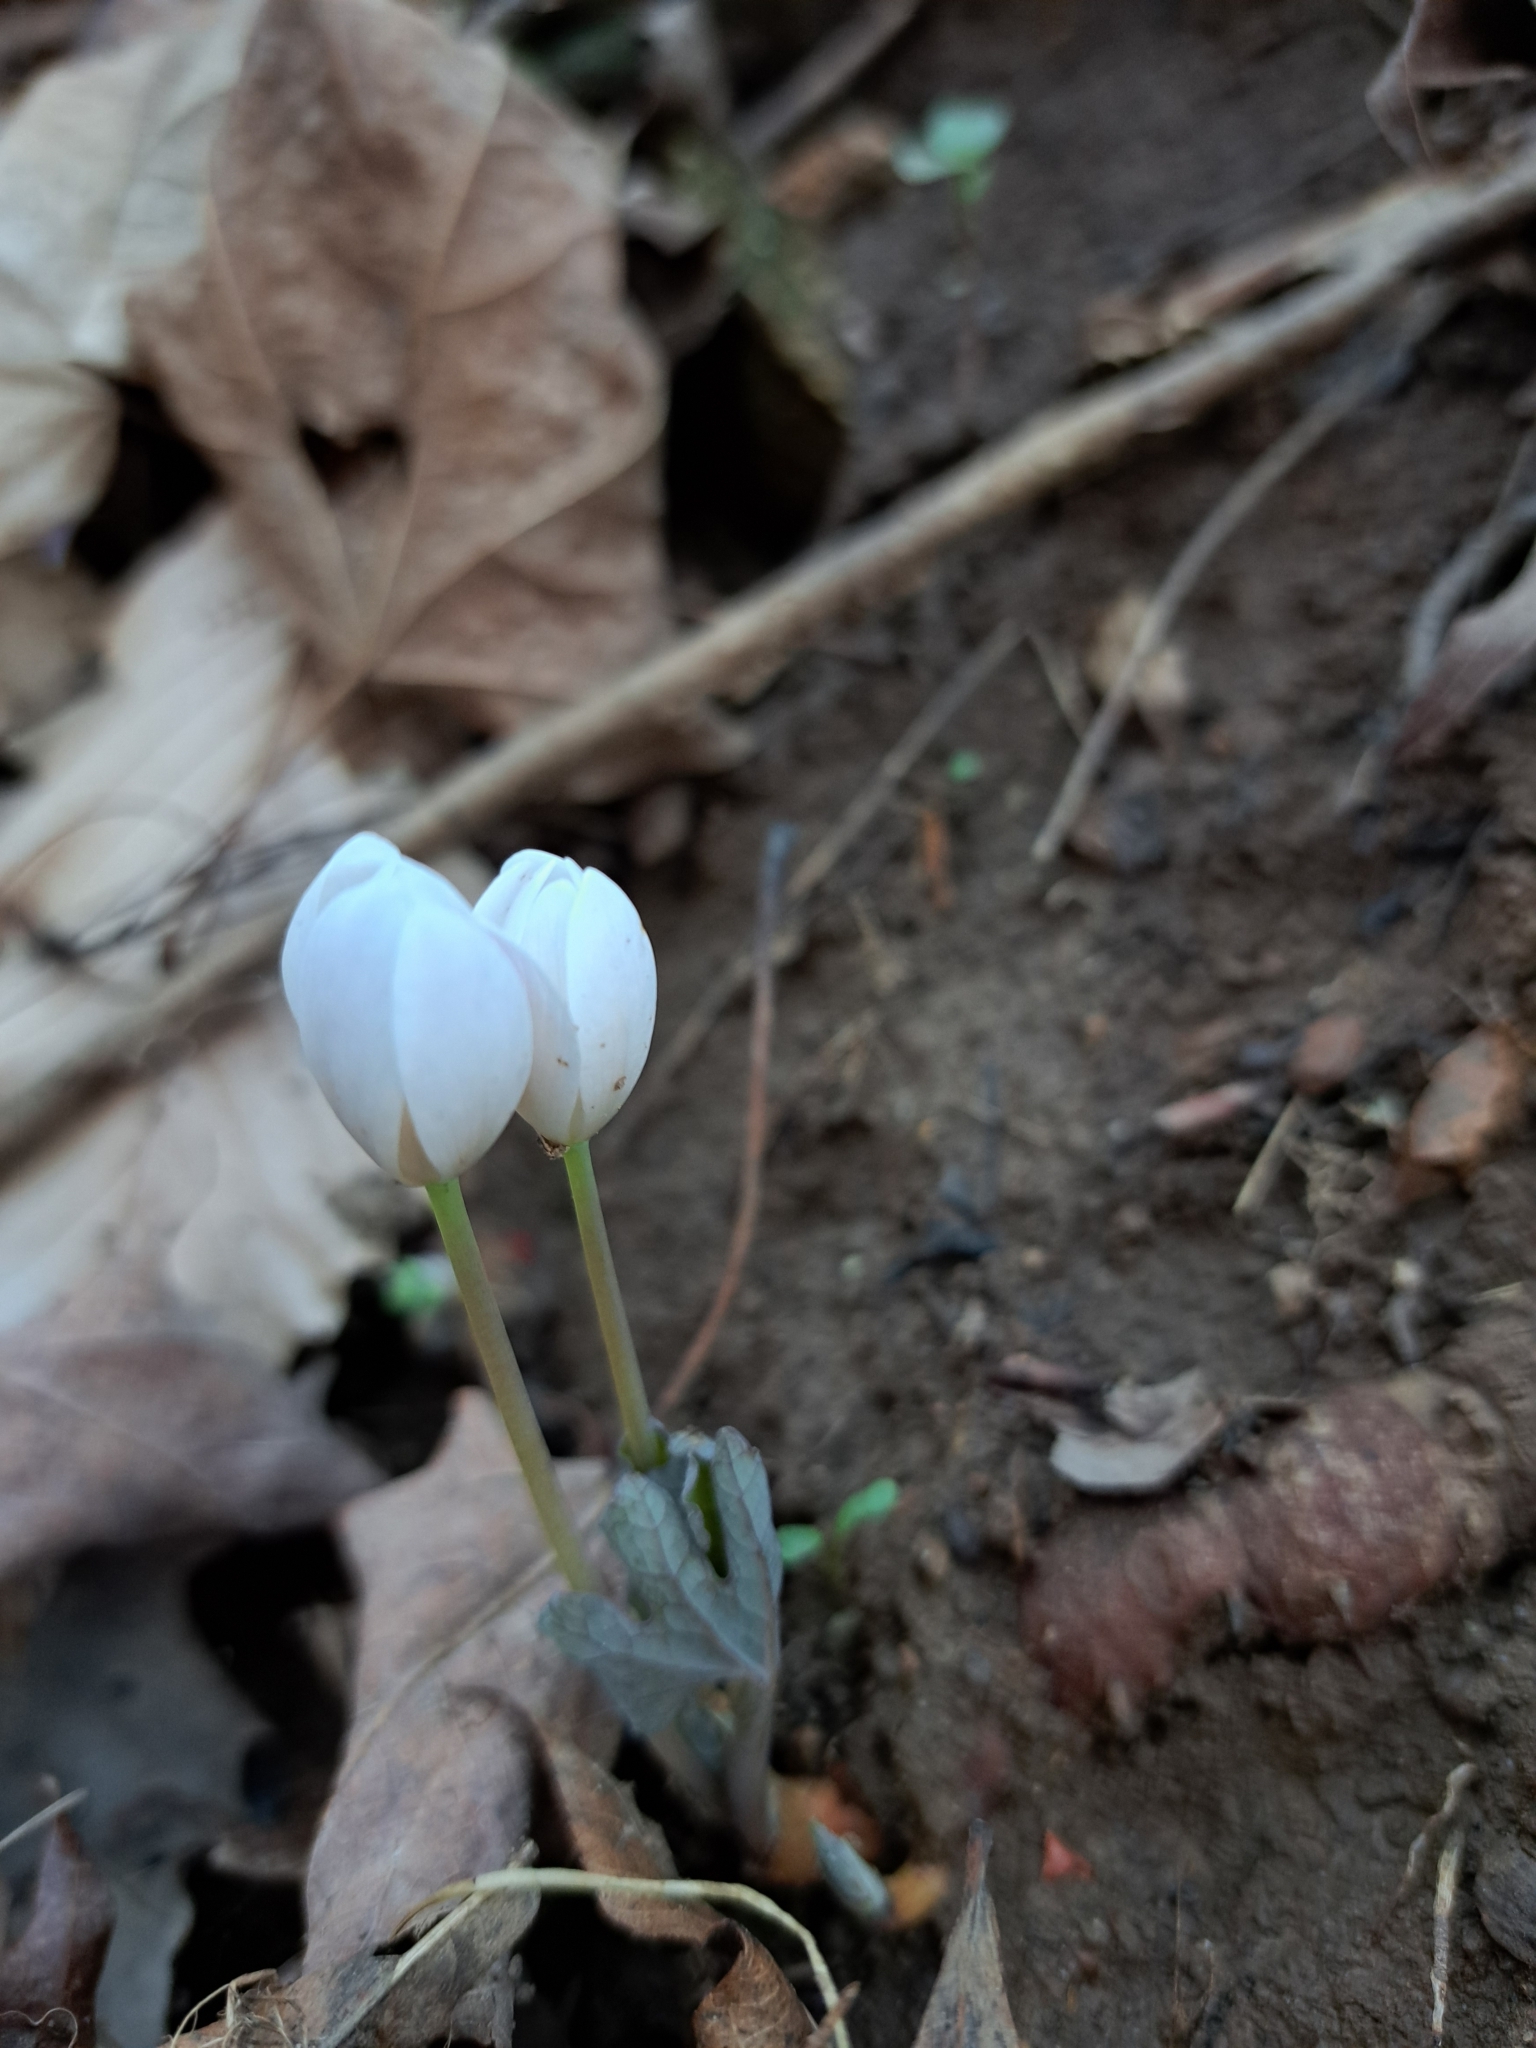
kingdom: Plantae
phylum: Tracheophyta
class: Magnoliopsida
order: Ranunculales
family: Papaveraceae
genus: Sanguinaria
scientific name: Sanguinaria canadensis
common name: Bloodroot
